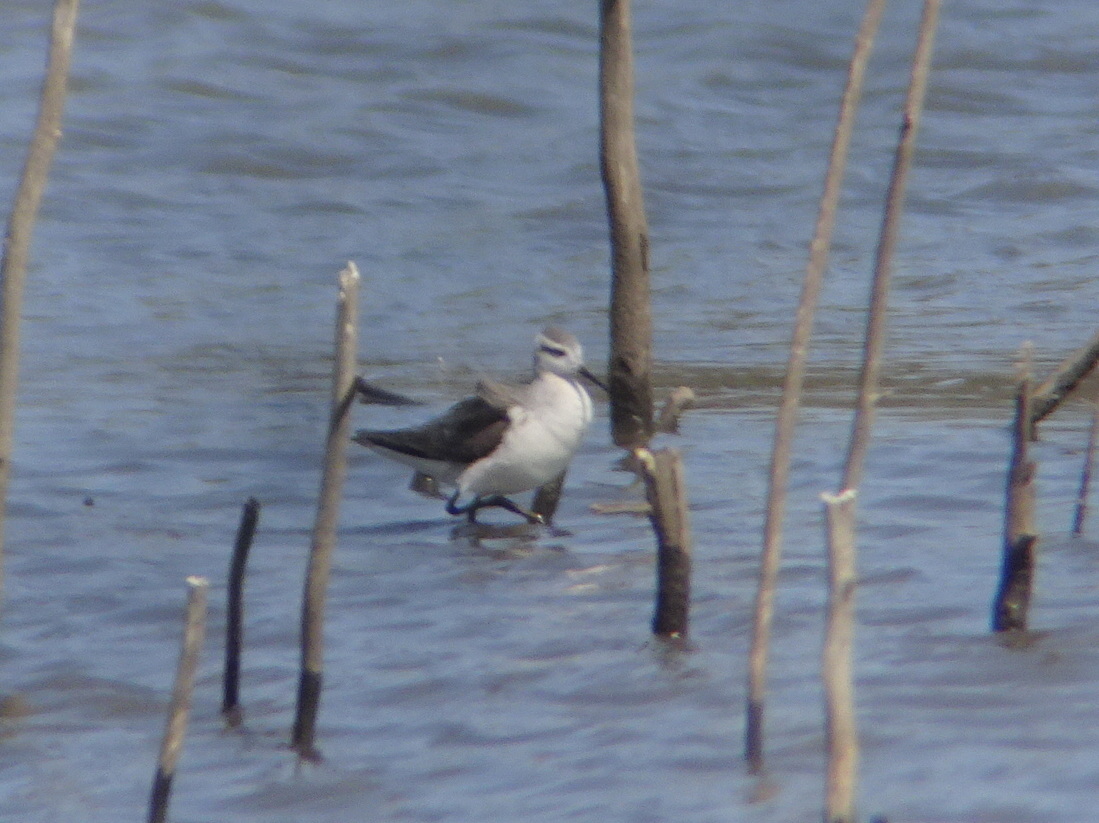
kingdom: Animalia
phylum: Chordata
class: Aves
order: Charadriiformes
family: Scolopacidae
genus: Phalaropus
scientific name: Phalaropus tricolor
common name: Wilson's phalarope
